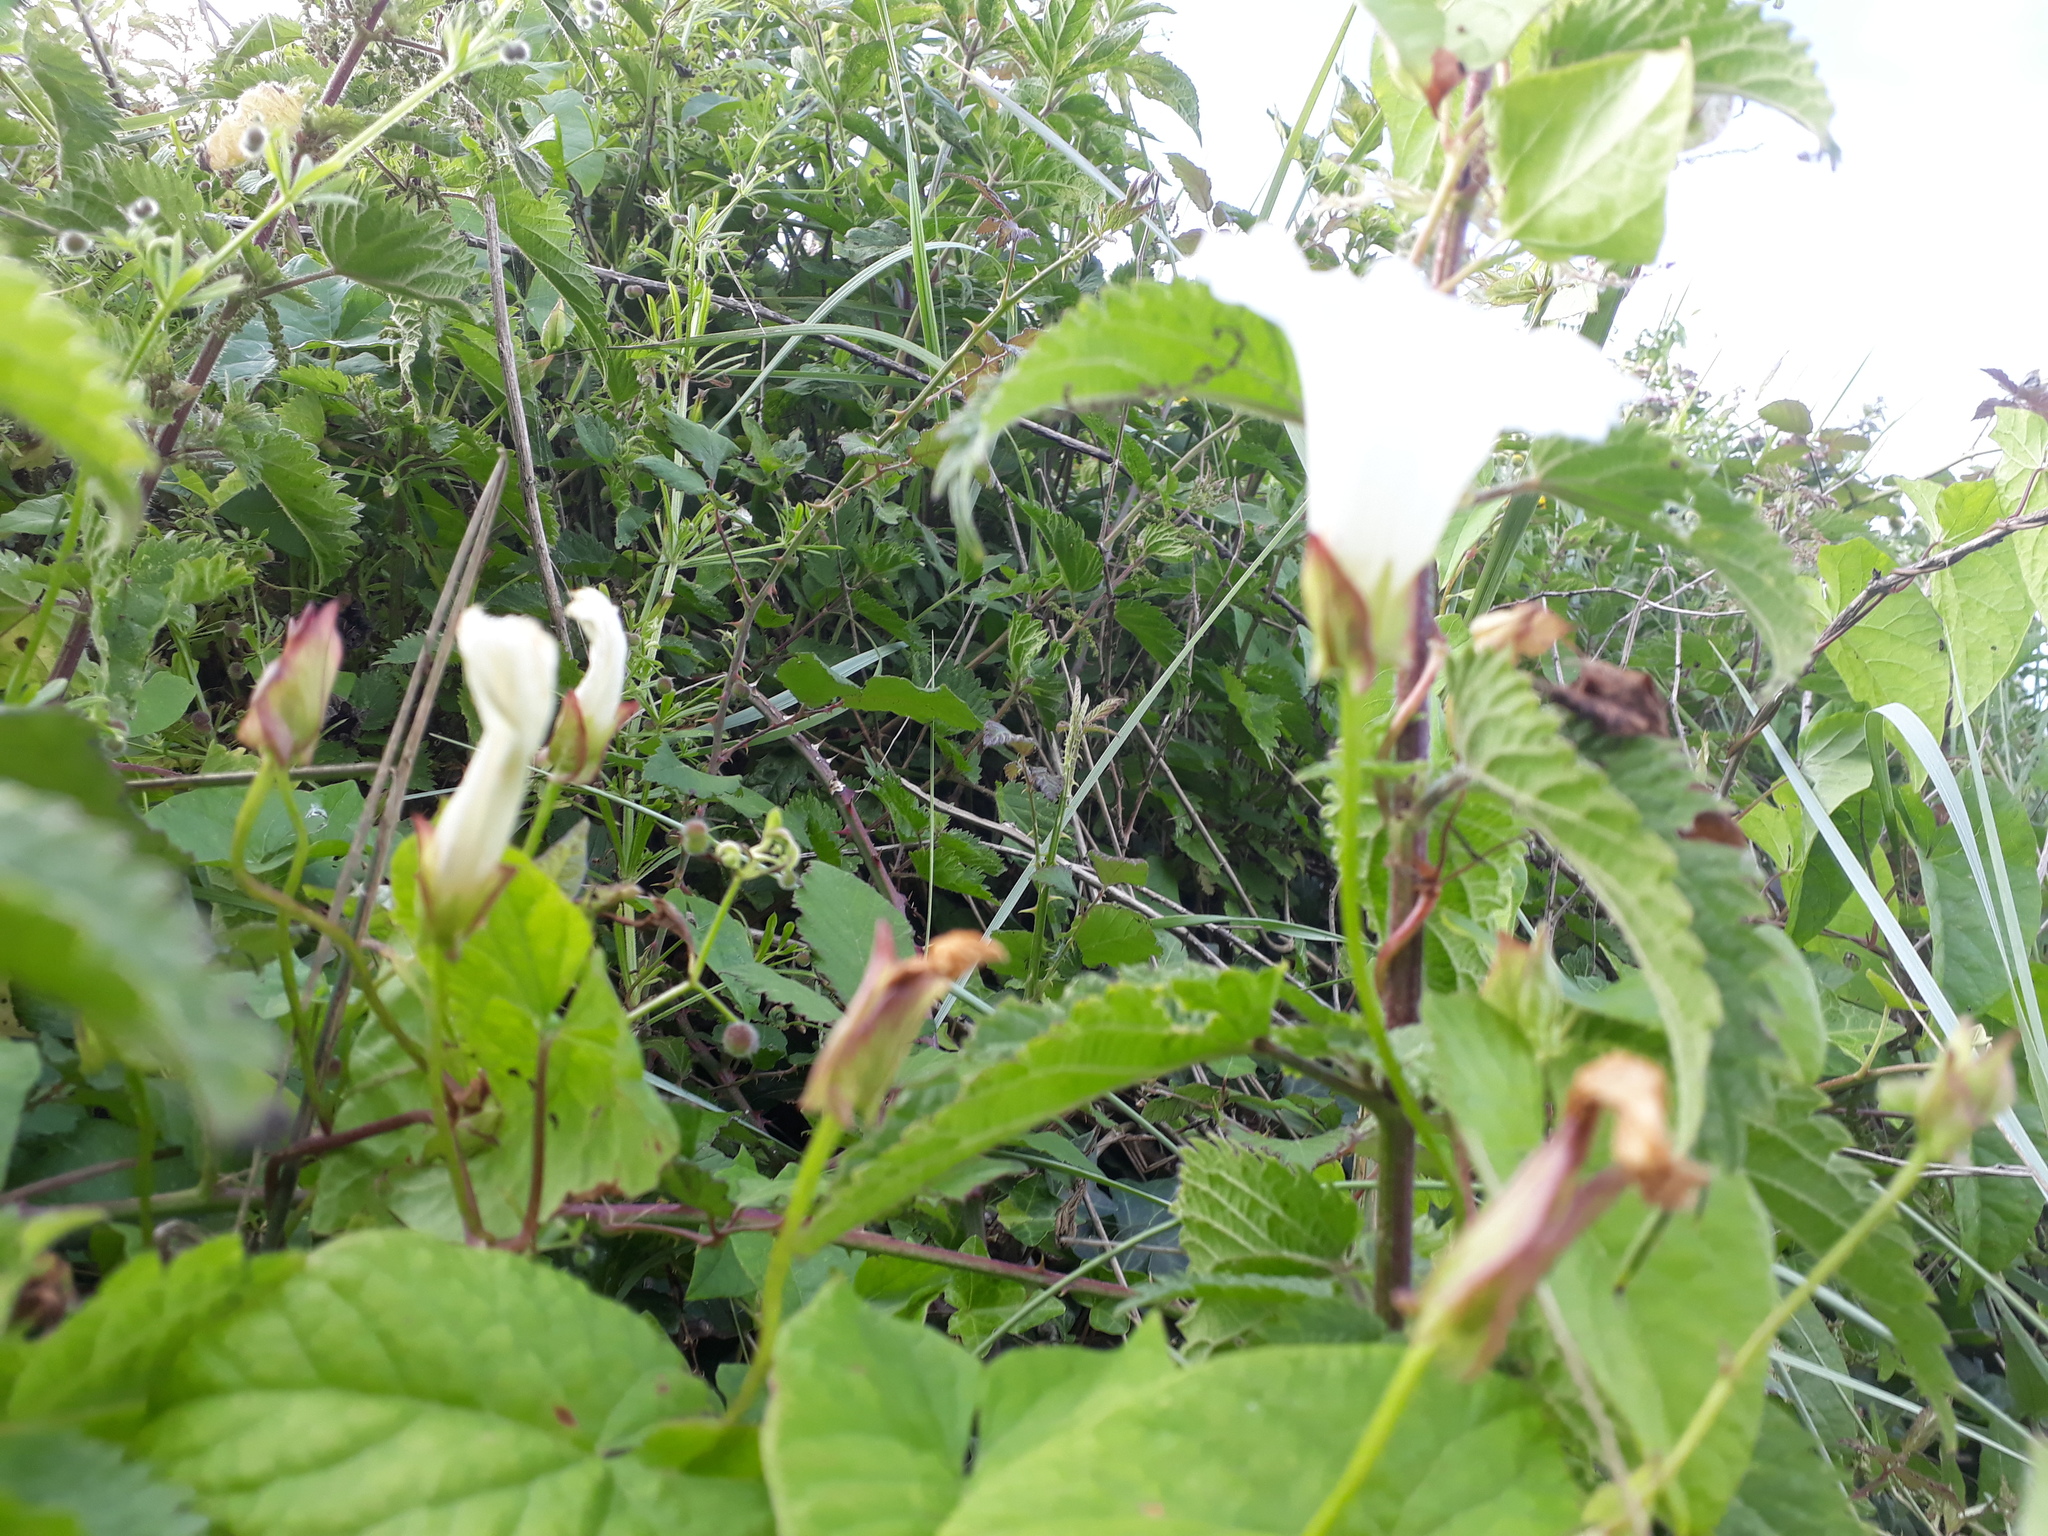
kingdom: Plantae
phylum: Tracheophyta
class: Magnoliopsida
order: Solanales
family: Convolvulaceae
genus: Calystegia
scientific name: Calystegia sepium
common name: Hedge bindweed
